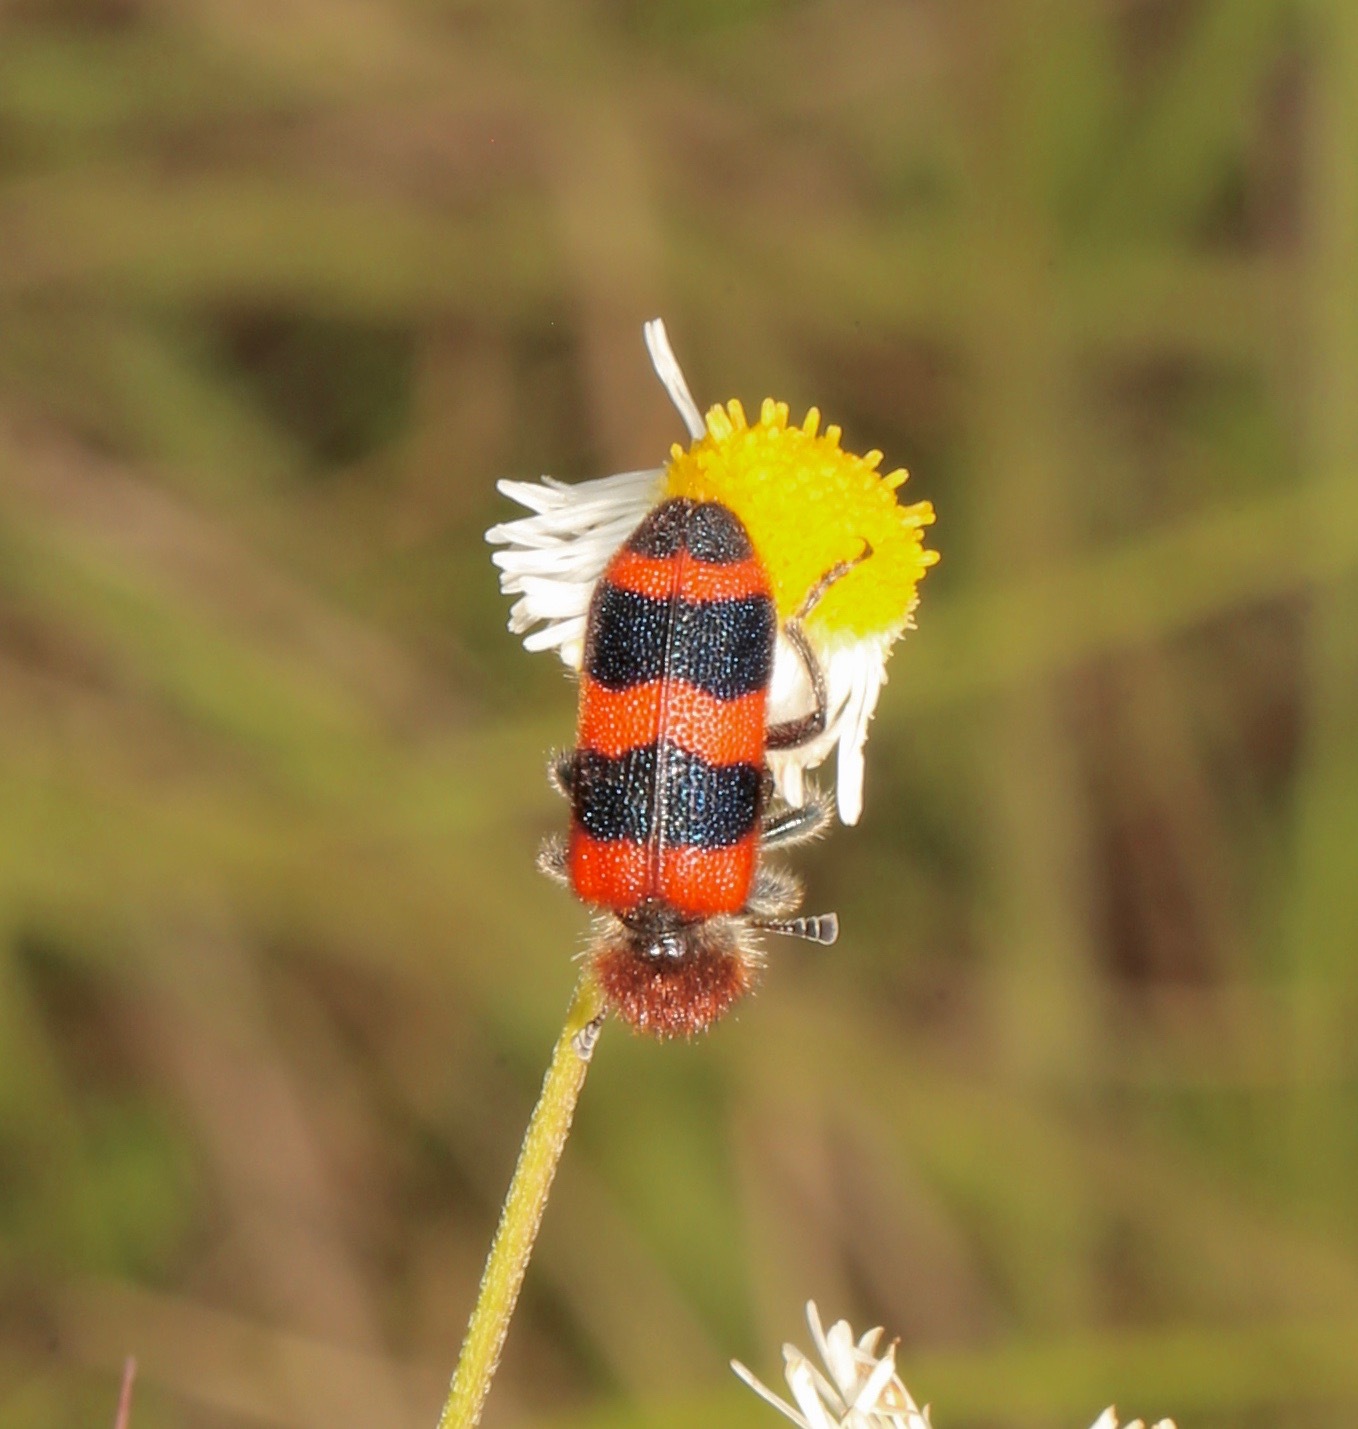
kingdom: Animalia
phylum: Arthropoda
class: Insecta
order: Coleoptera
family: Cleridae
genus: Trichodes
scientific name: Trichodes apivorus
